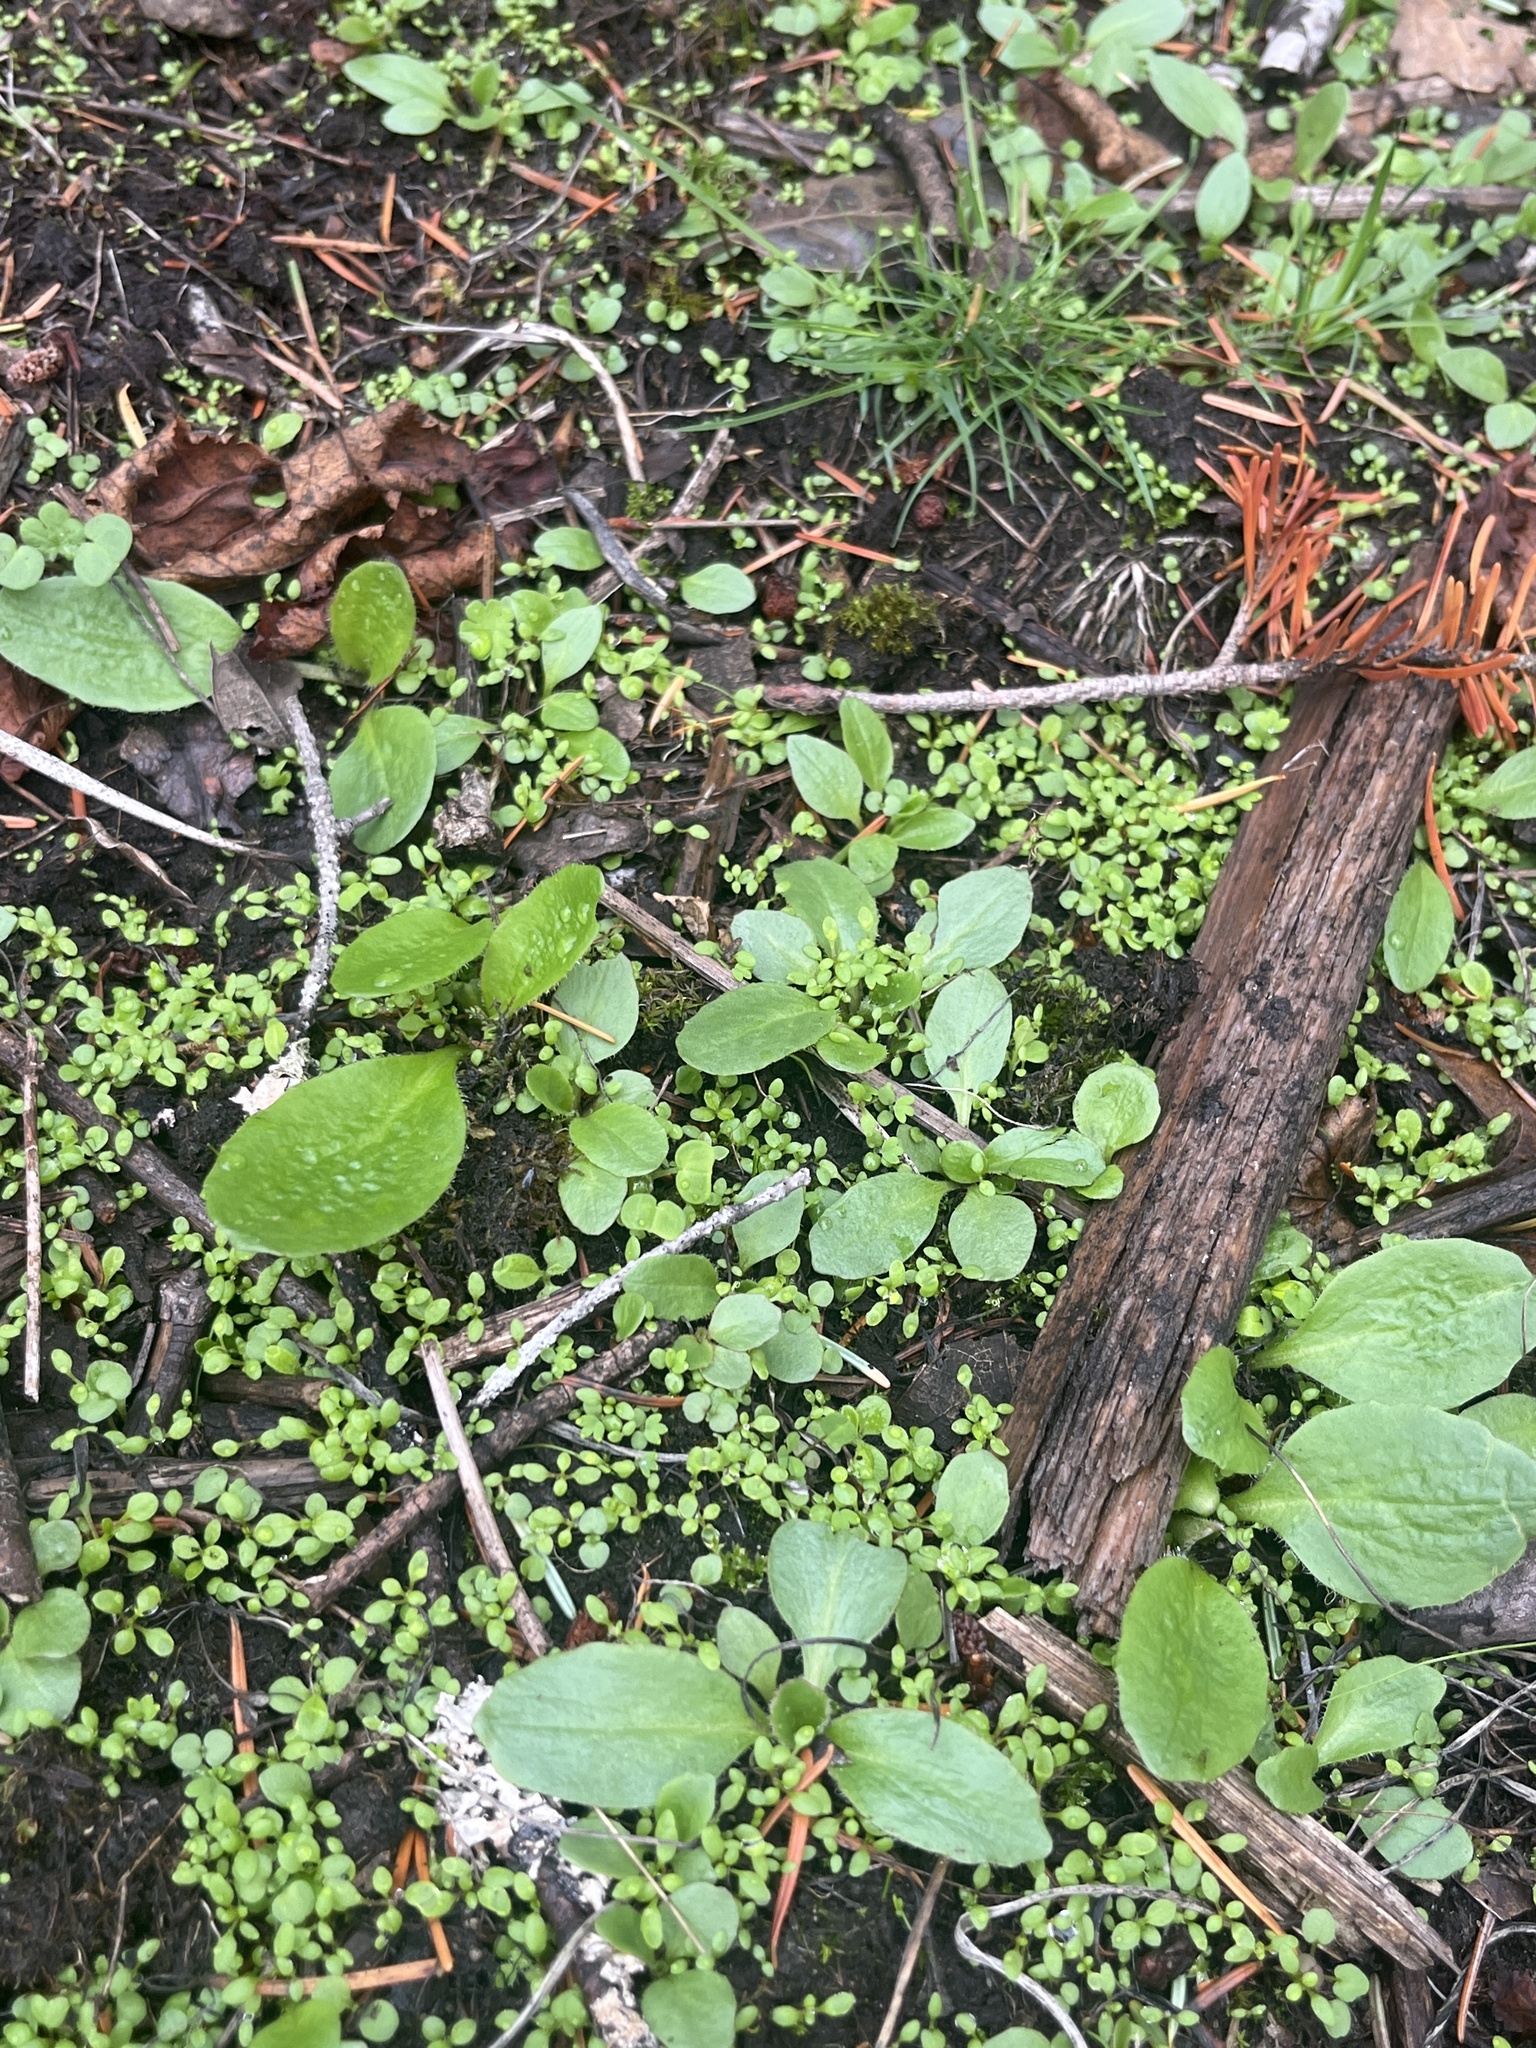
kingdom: Plantae
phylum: Tracheophyta
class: Magnoliopsida
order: Saxifragales
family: Saxifragaceae
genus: Micranthes
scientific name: Micranthes integrifolia
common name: Wholeleaf saxifrage
